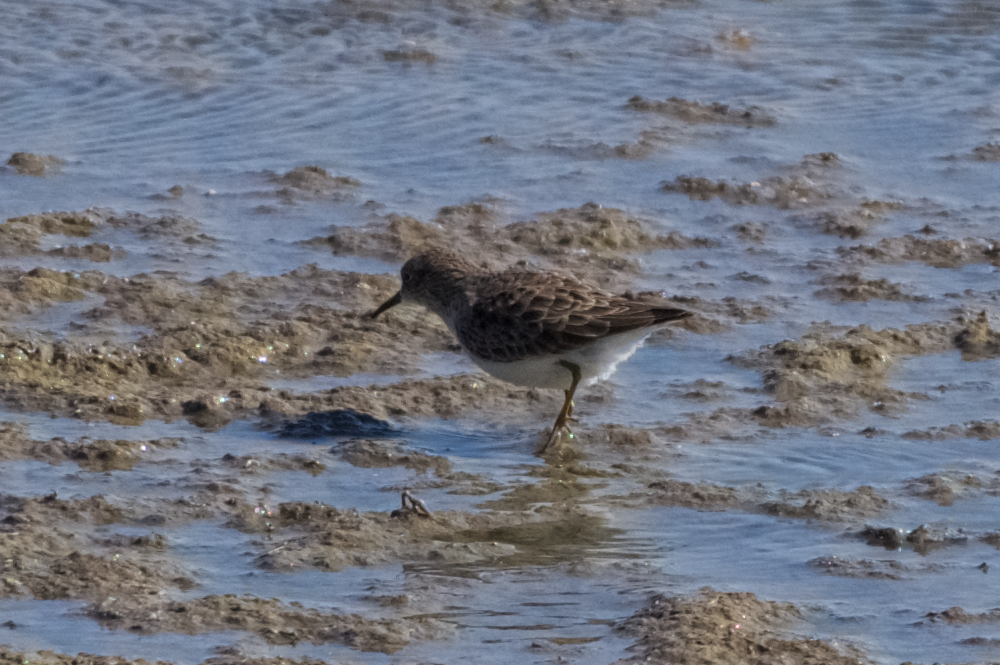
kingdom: Animalia
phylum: Chordata
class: Aves
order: Charadriiformes
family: Scolopacidae
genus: Calidris
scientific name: Calidris minutilla
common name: Least sandpiper
